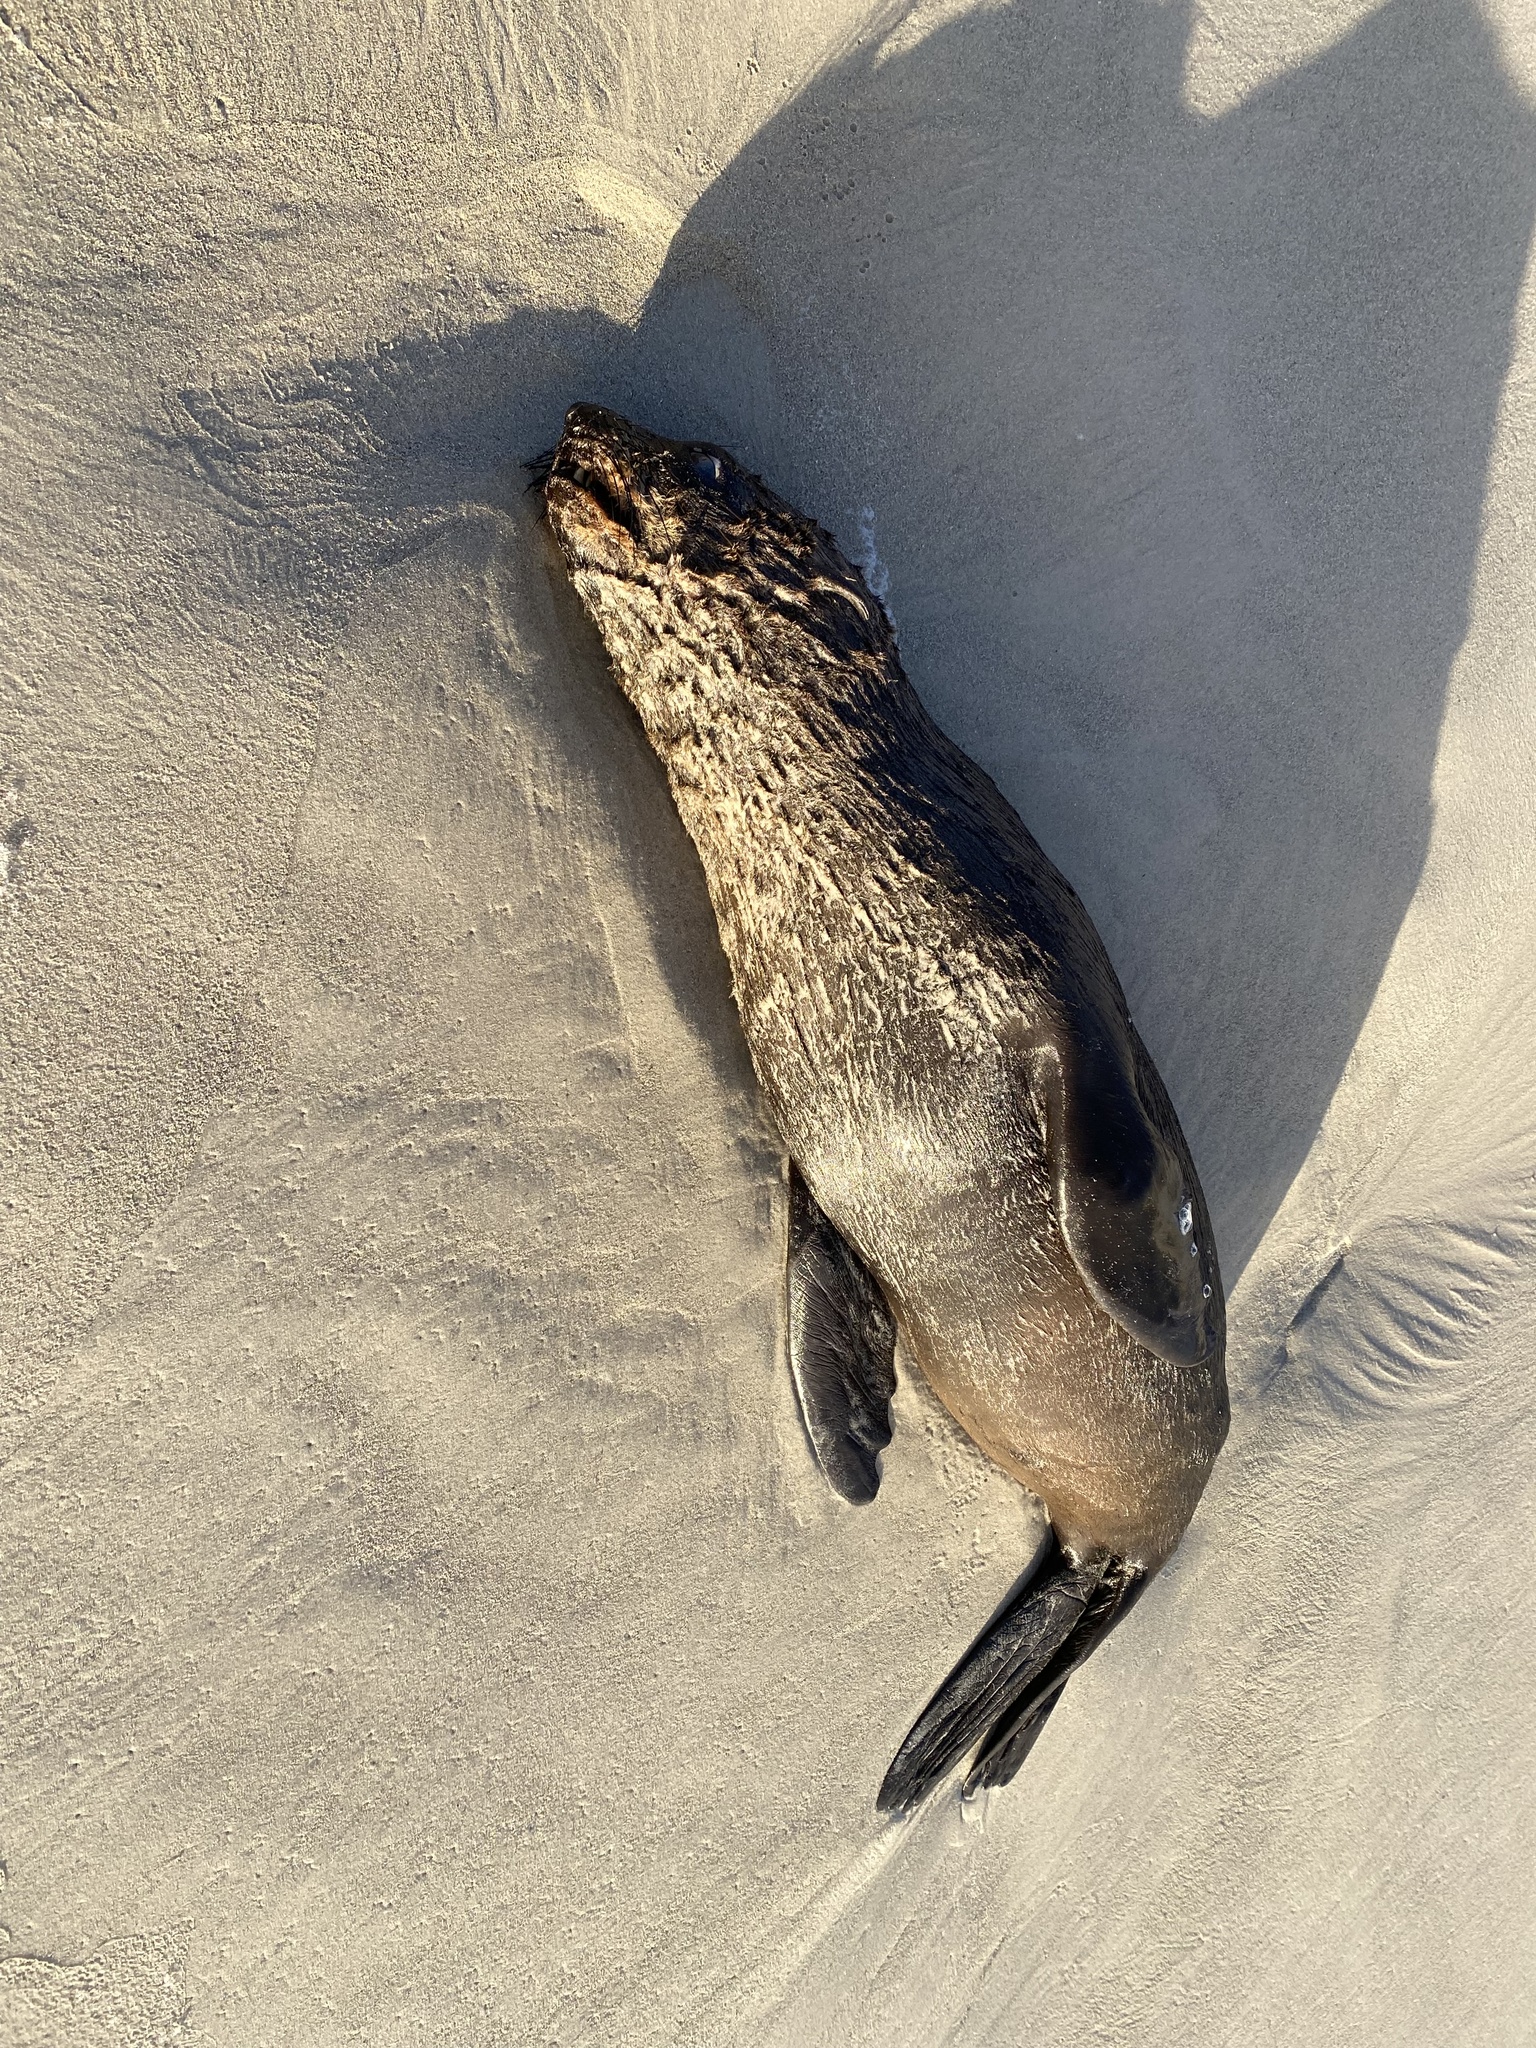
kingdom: Animalia
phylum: Chordata
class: Mammalia
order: Carnivora
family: Otariidae
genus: Arctocephalus
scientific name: Arctocephalus pusillus
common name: Brown fur seal
